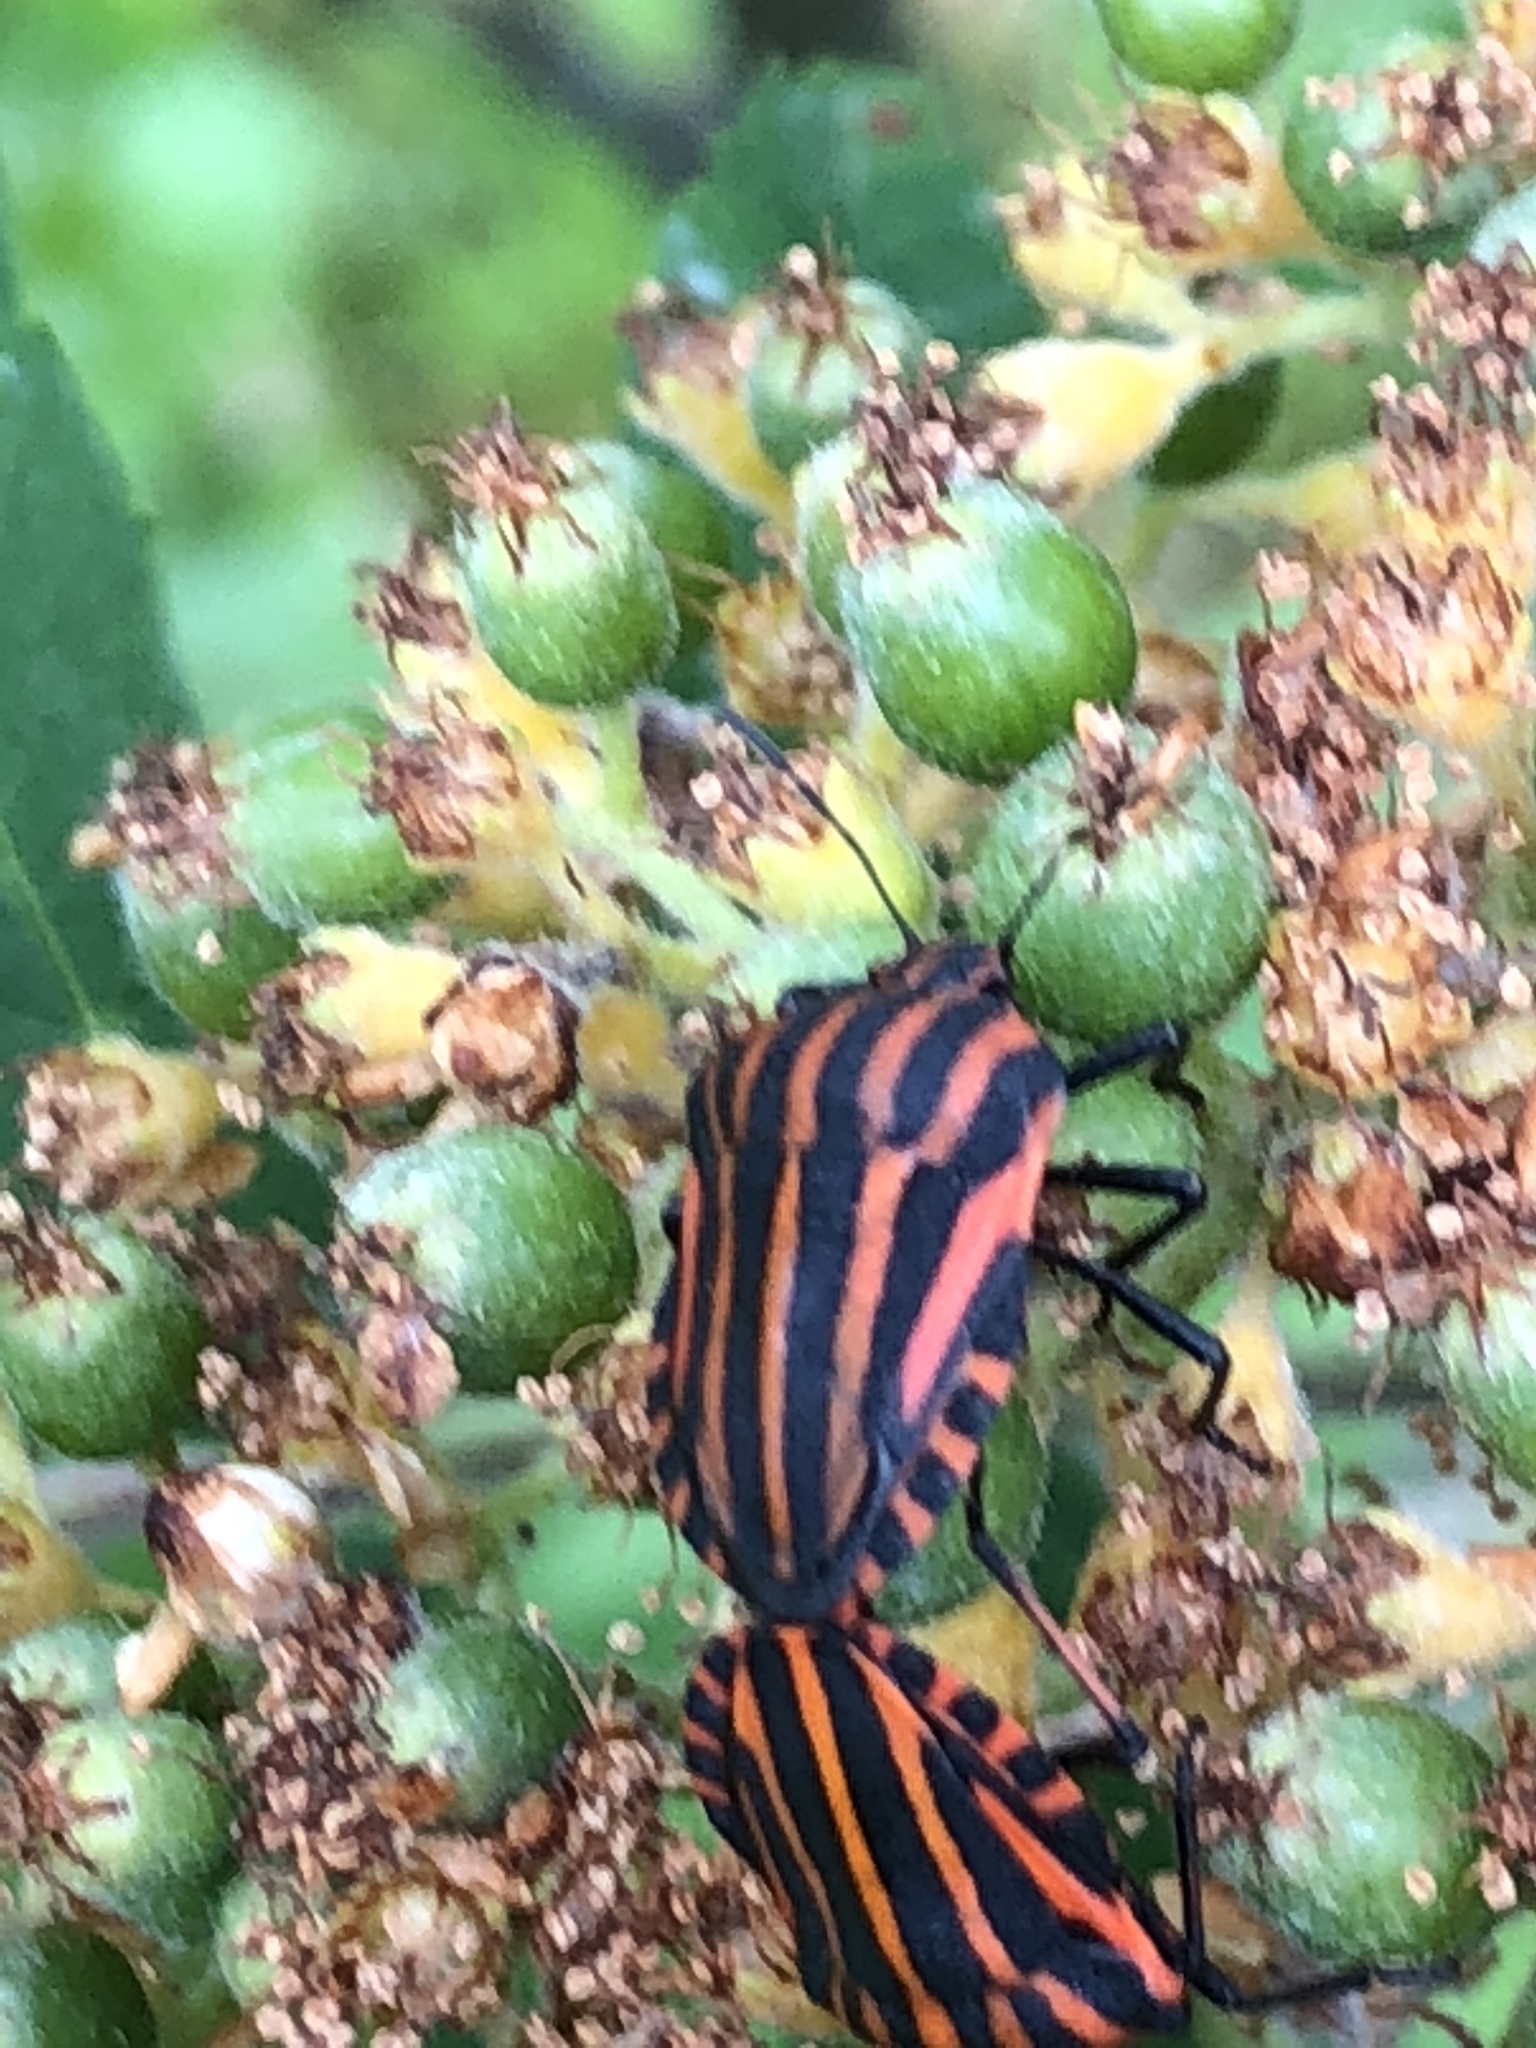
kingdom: Animalia
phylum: Arthropoda
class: Insecta
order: Hemiptera
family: Pentatomidae
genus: Graphosoma
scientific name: Graphosoma italicum
